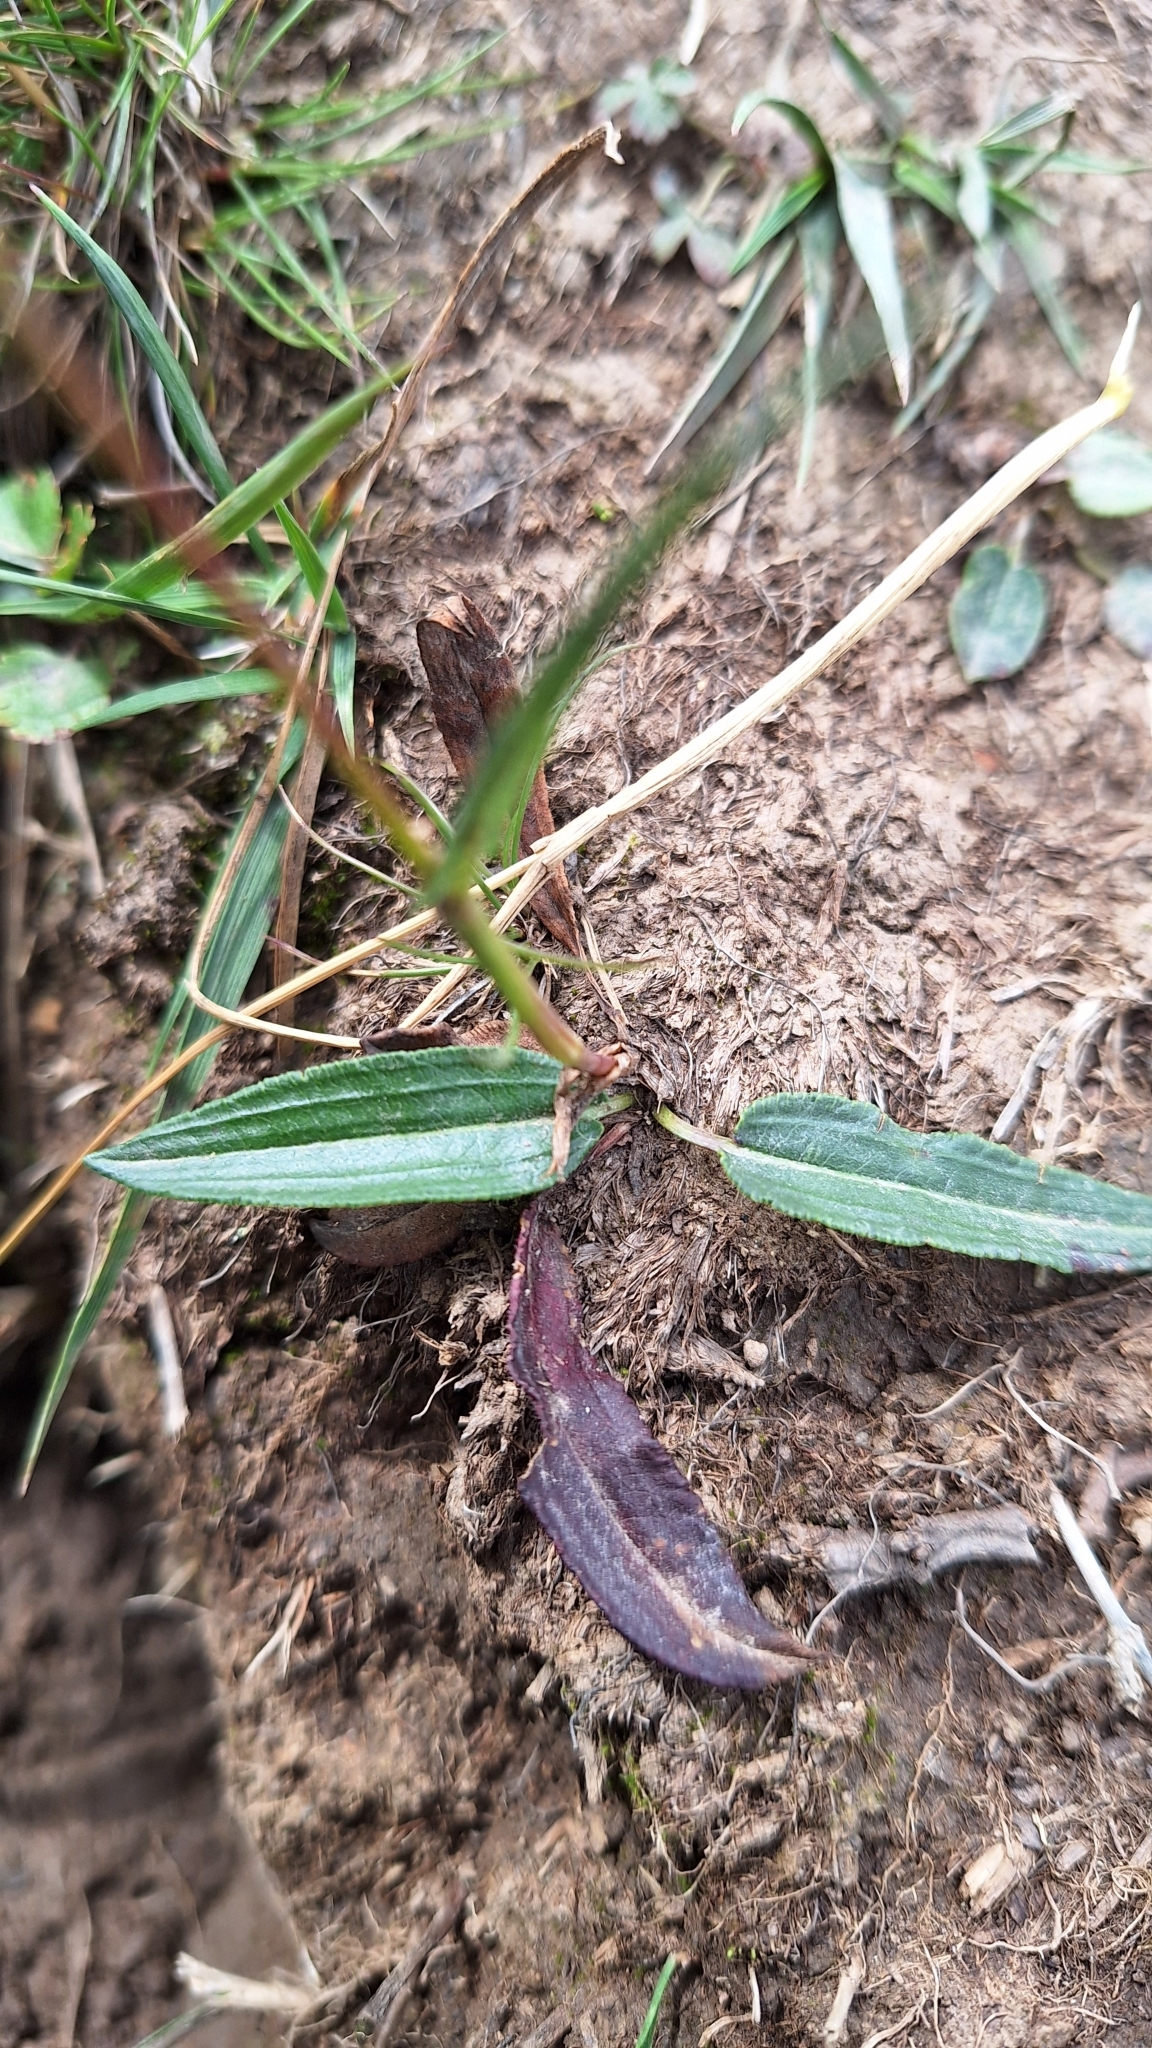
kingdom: Plantae
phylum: Tracheophyta
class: Magnoliopsida
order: Caryophyllales
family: Polygonaceae
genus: Bistorta
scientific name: Bistorta vivipara
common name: Alpine bistort
